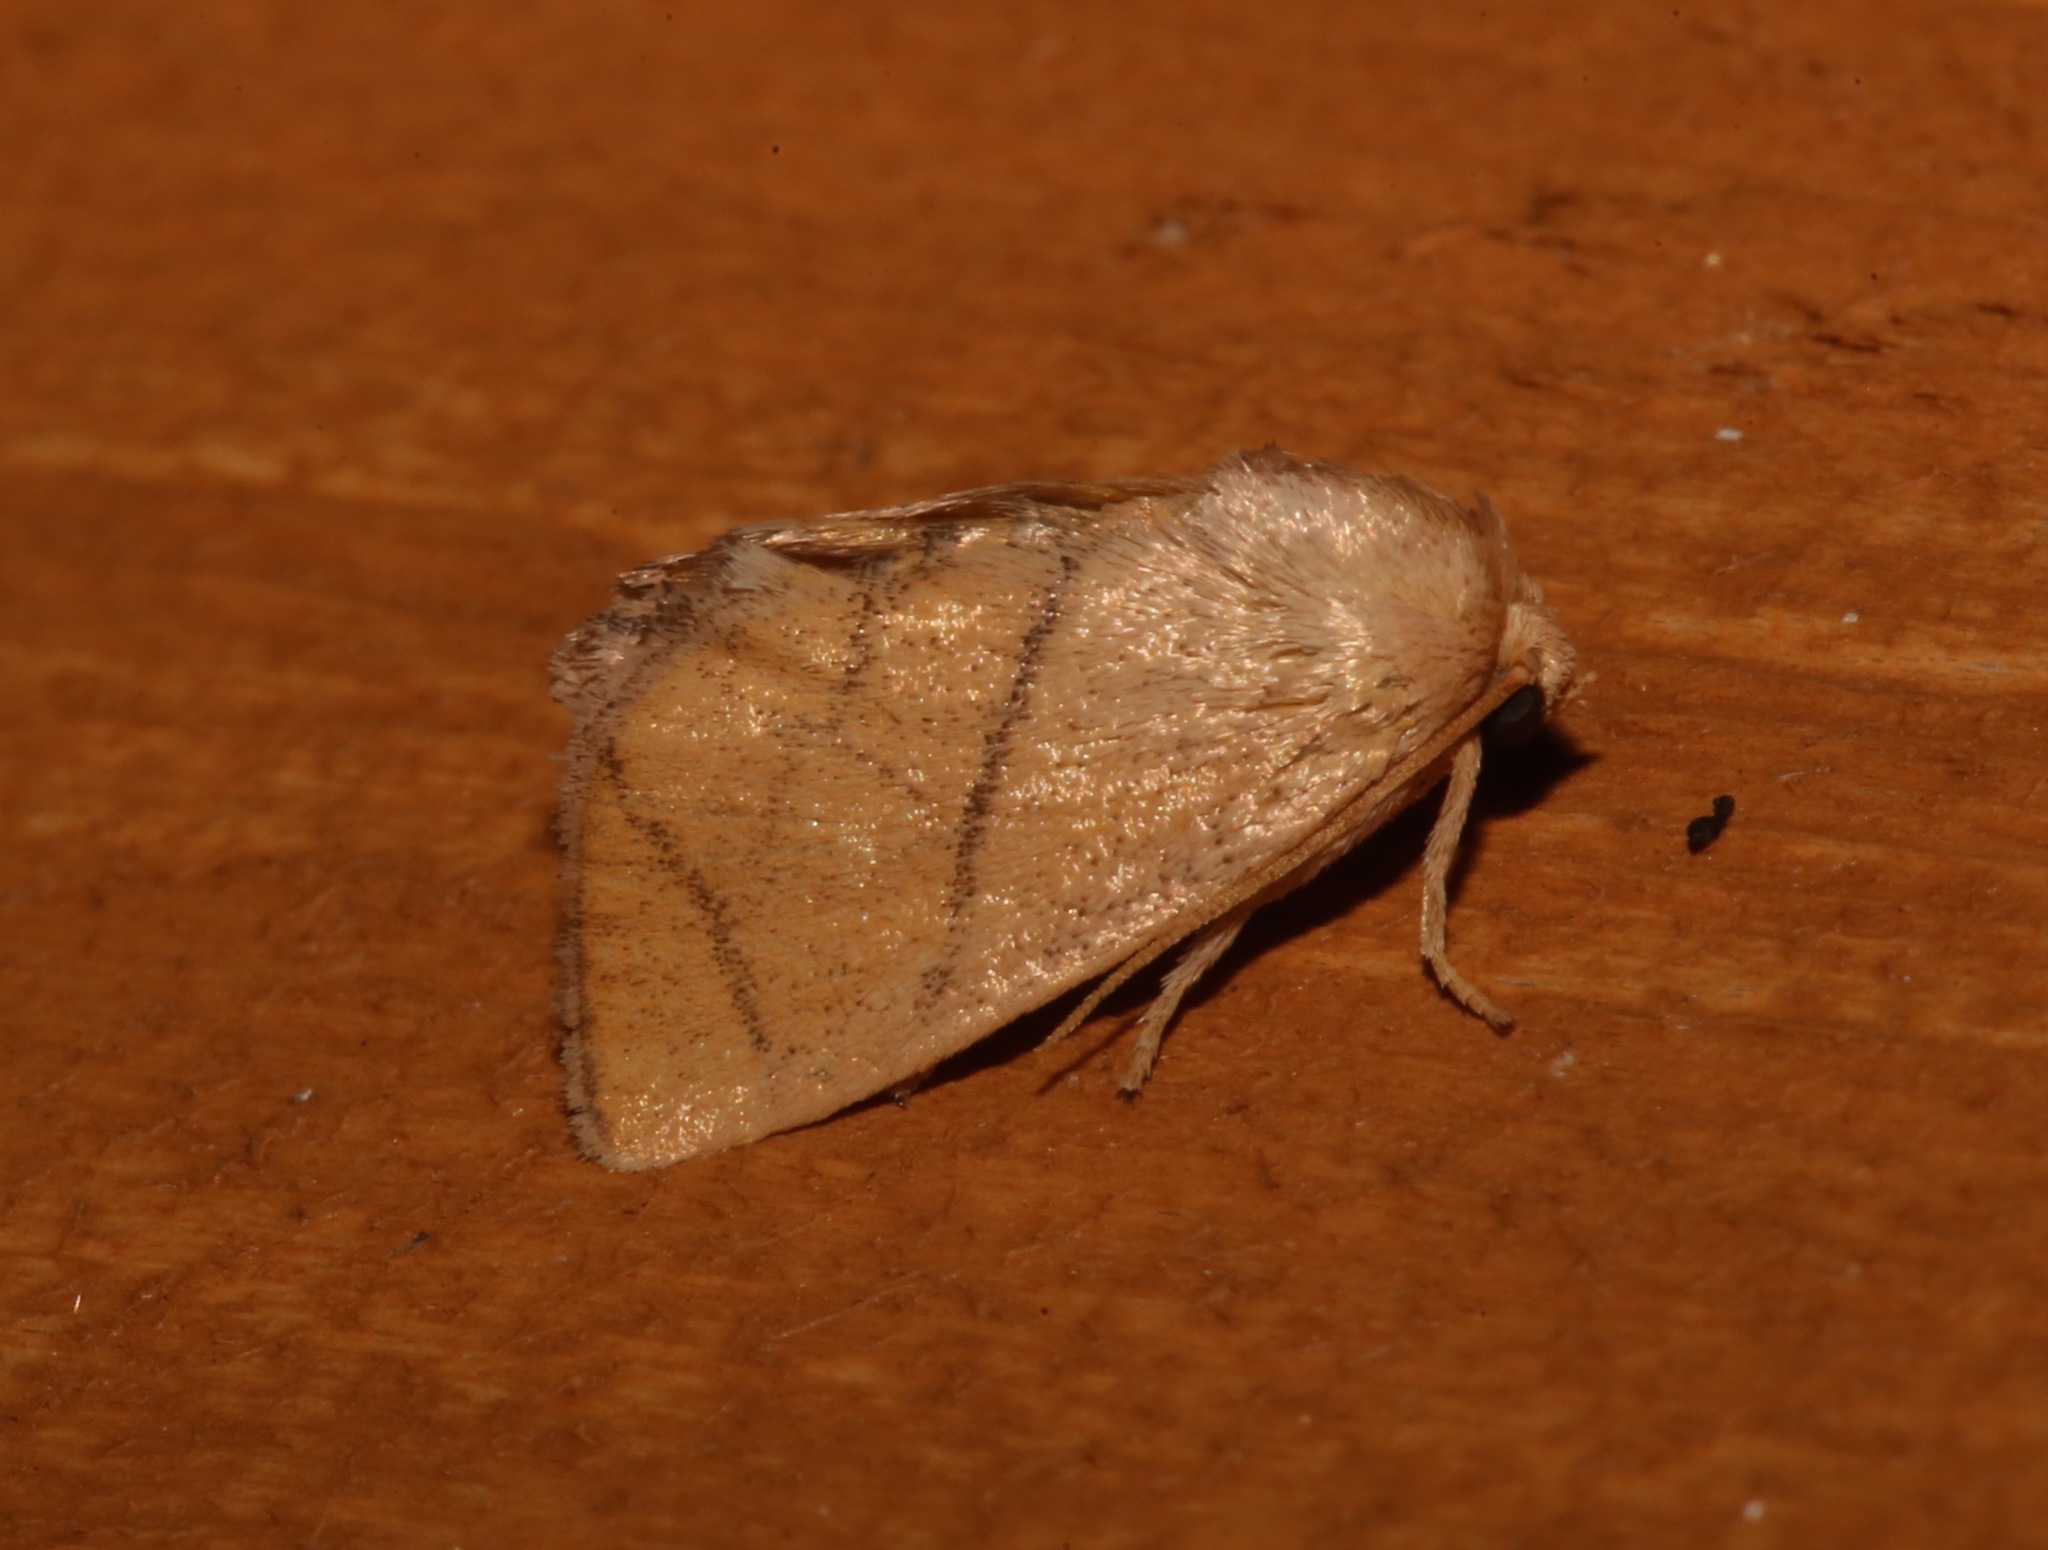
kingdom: Animalia
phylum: Arthropoda
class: Insecta
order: Lepidoptera
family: Limacodidae
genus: Apoda
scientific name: Apoda y-inversa
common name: Yellow-collared slug moth
